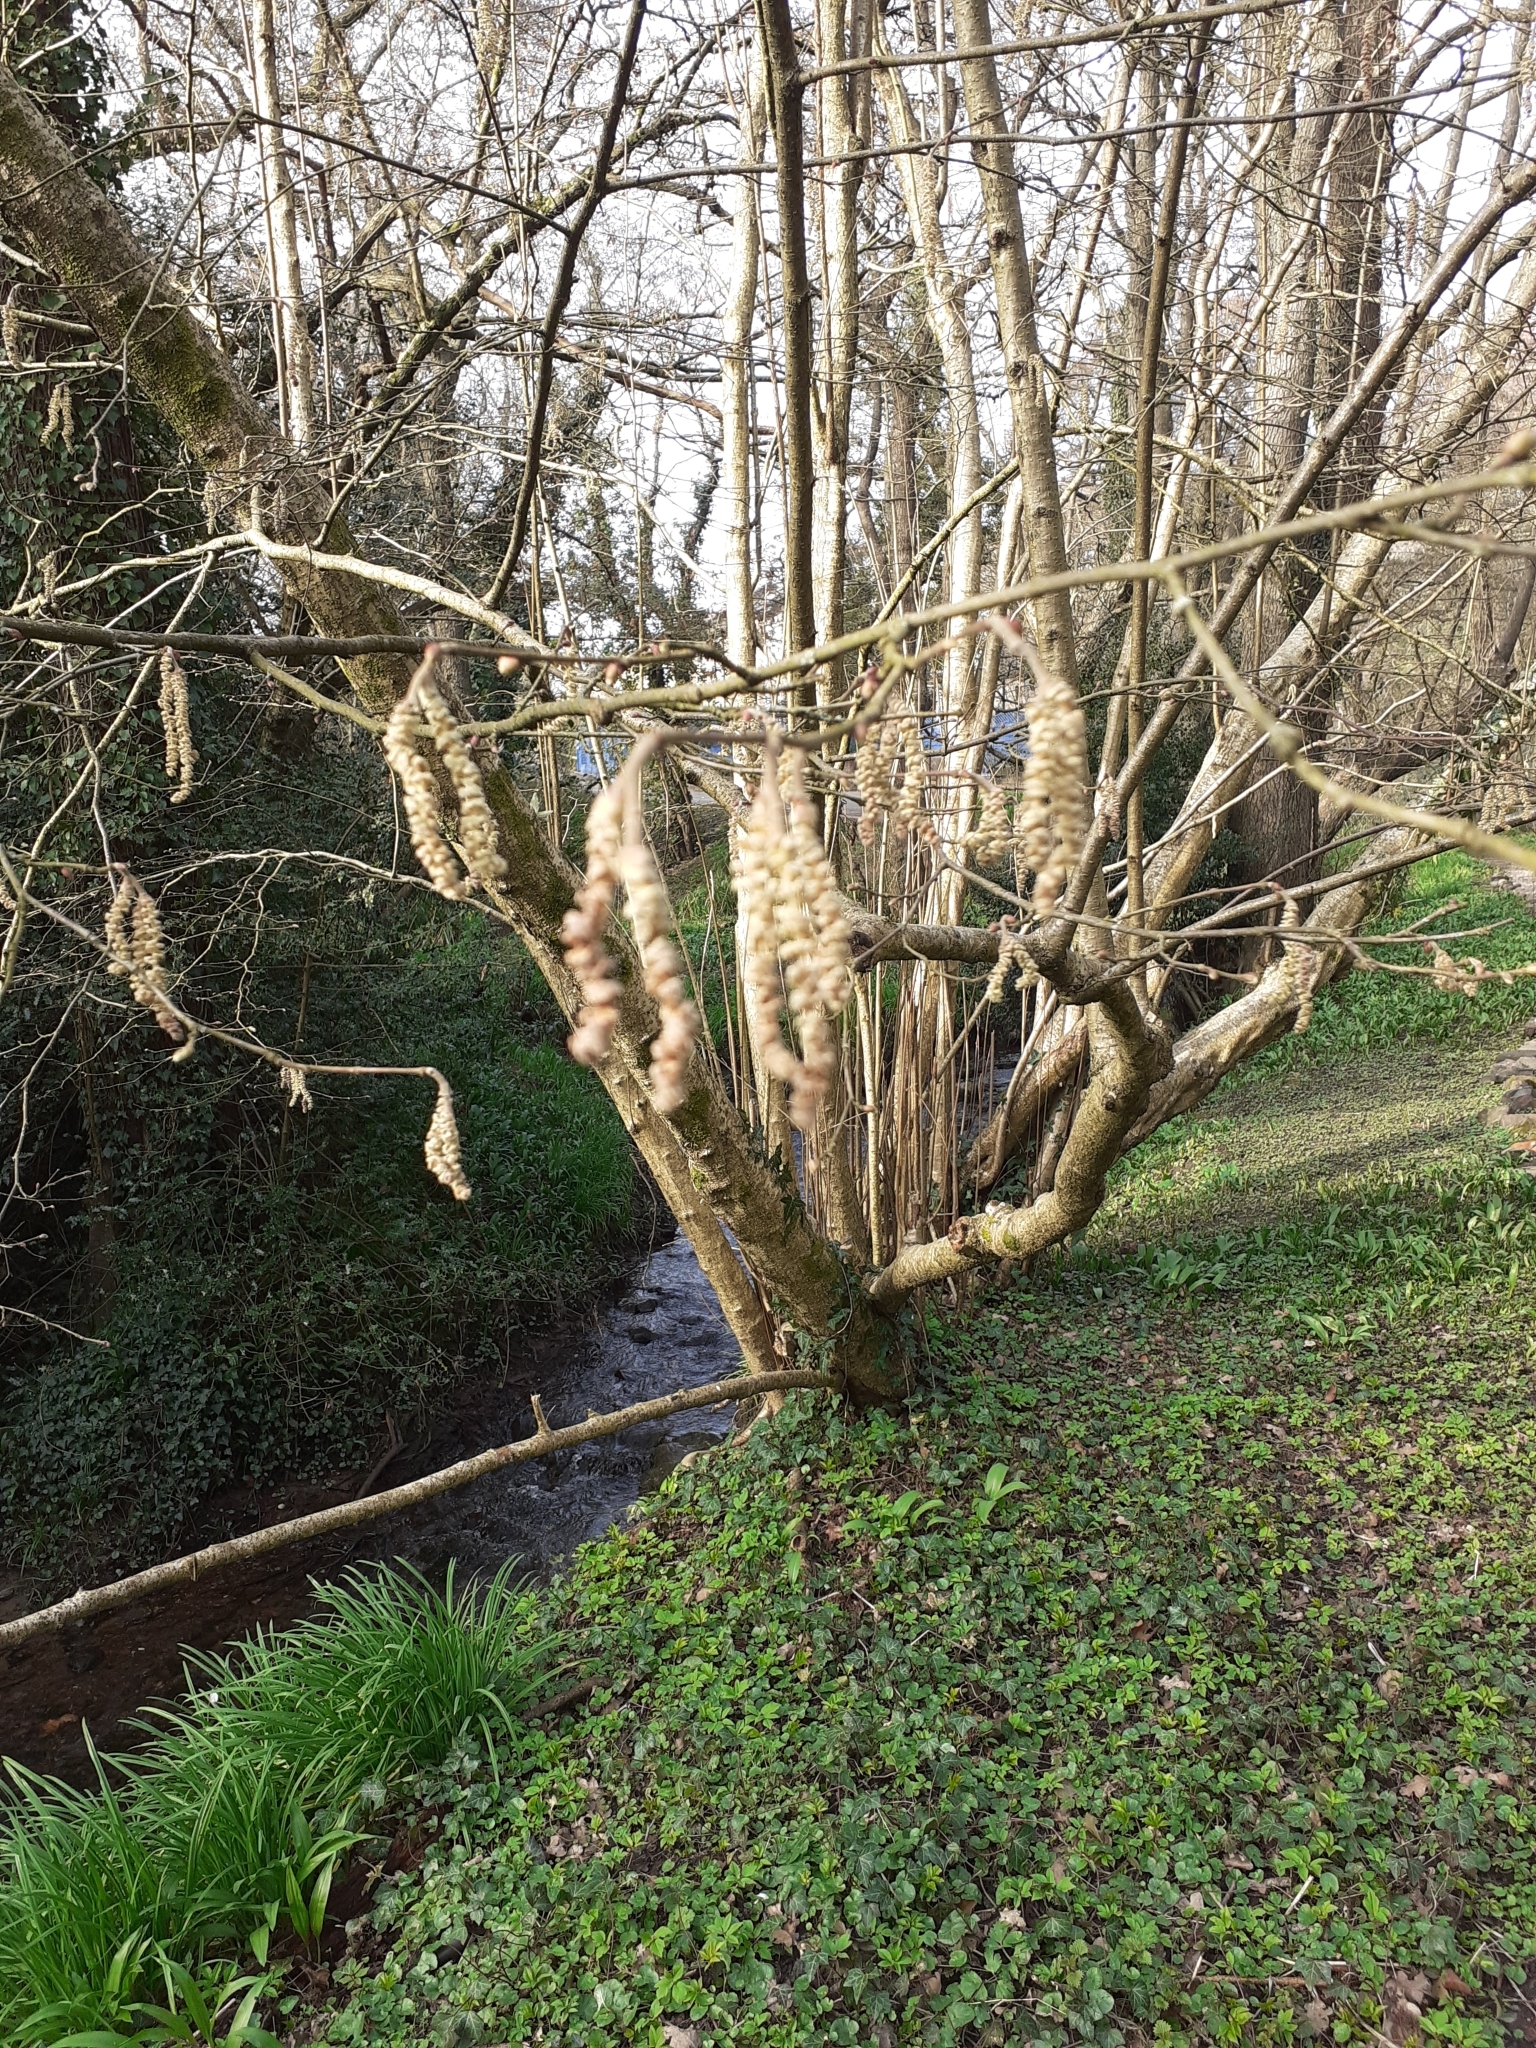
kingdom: Plantae
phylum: Tracheophyta
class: Magnoliopsida
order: Fagales
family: Betulaceae
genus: Corylus
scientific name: Corylus avellana
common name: European hazel
